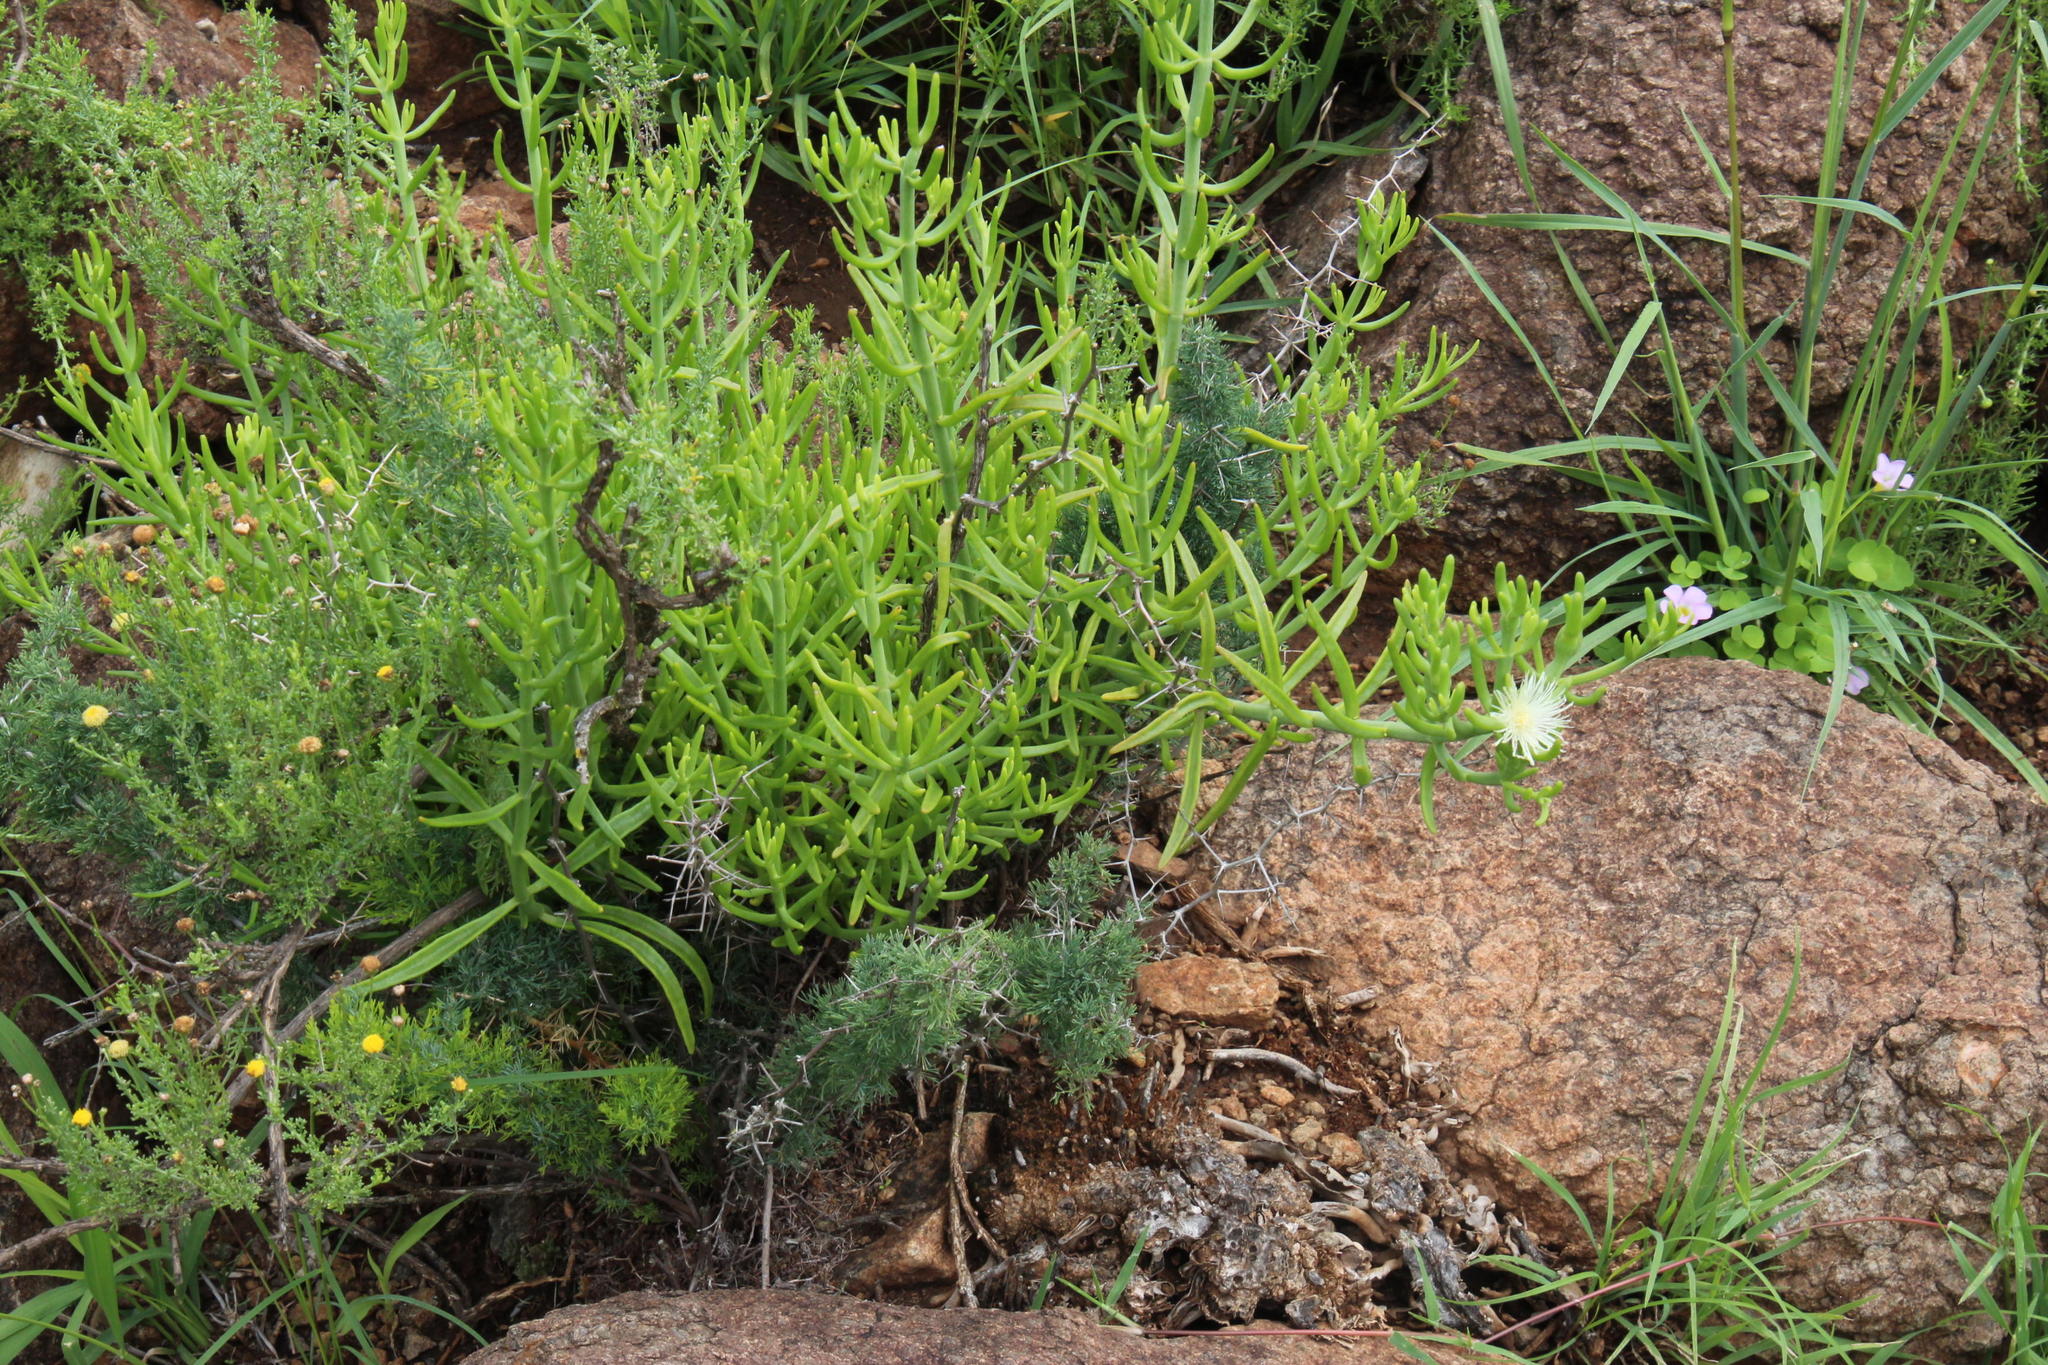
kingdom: Plantae
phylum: Tracheophyta
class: Magnoliopsida
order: Caryophyllales
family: Aizoaceae
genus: Mesembryanthemum
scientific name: Mesembryanthemum geniculiflorum
